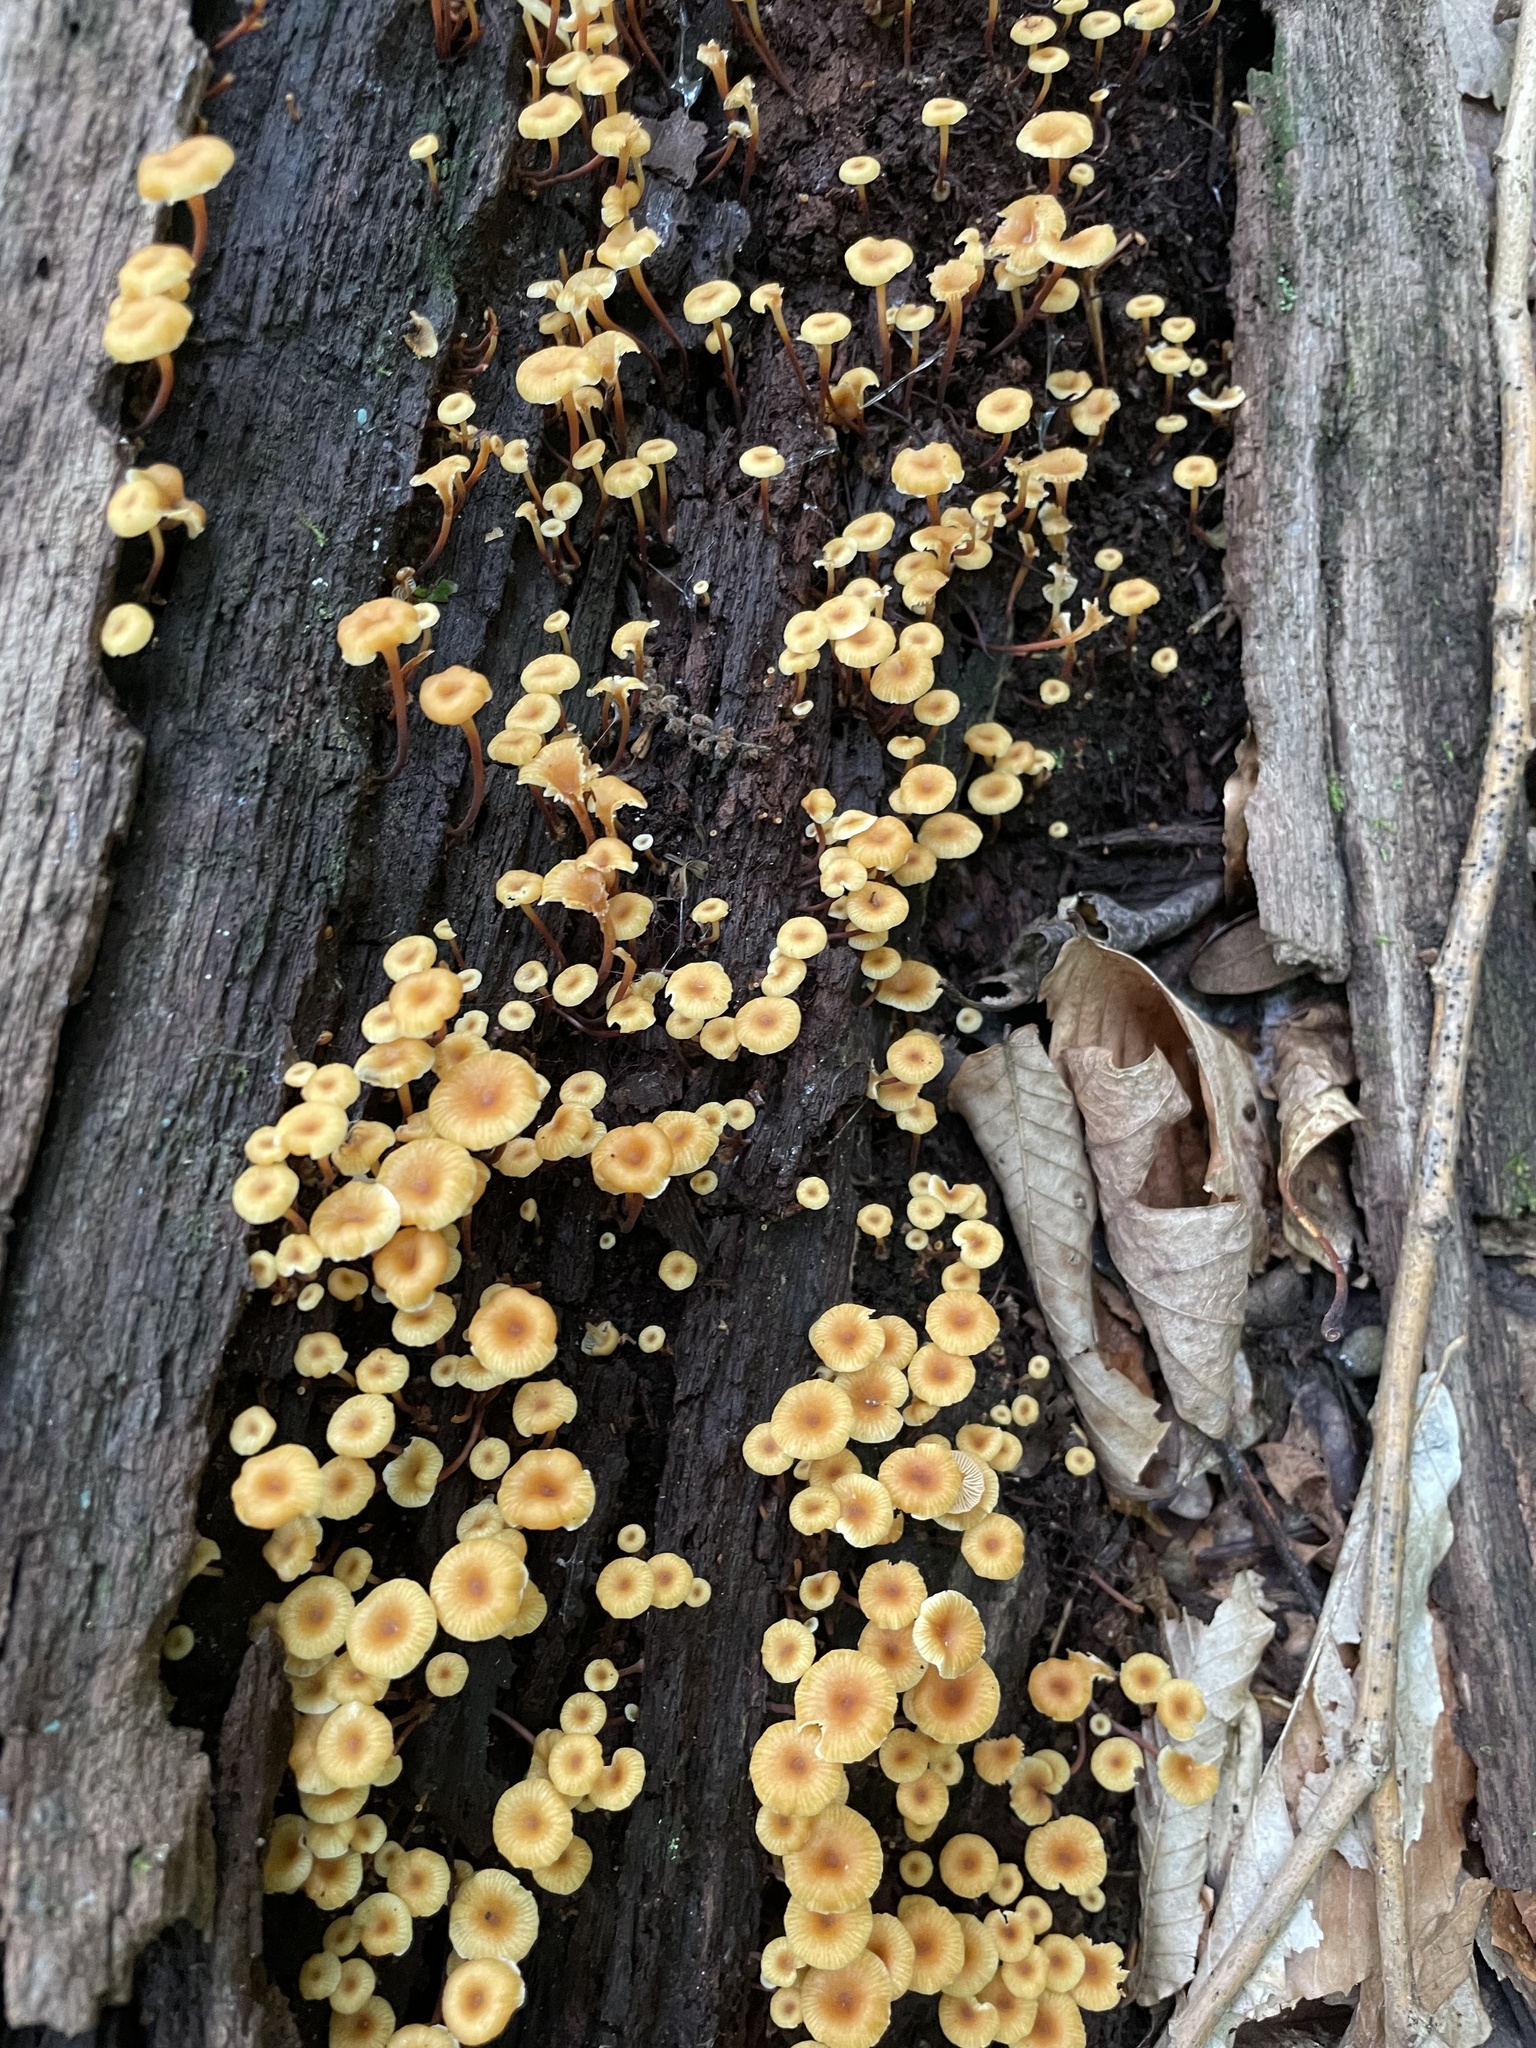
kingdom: Fungi
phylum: Basidiomycota
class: Agaricomycetes
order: Agaricales
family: Mycenaceae
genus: Xeromphalina
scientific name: Xeromphalina kauffmanii
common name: Cross-veined troop mushroom
